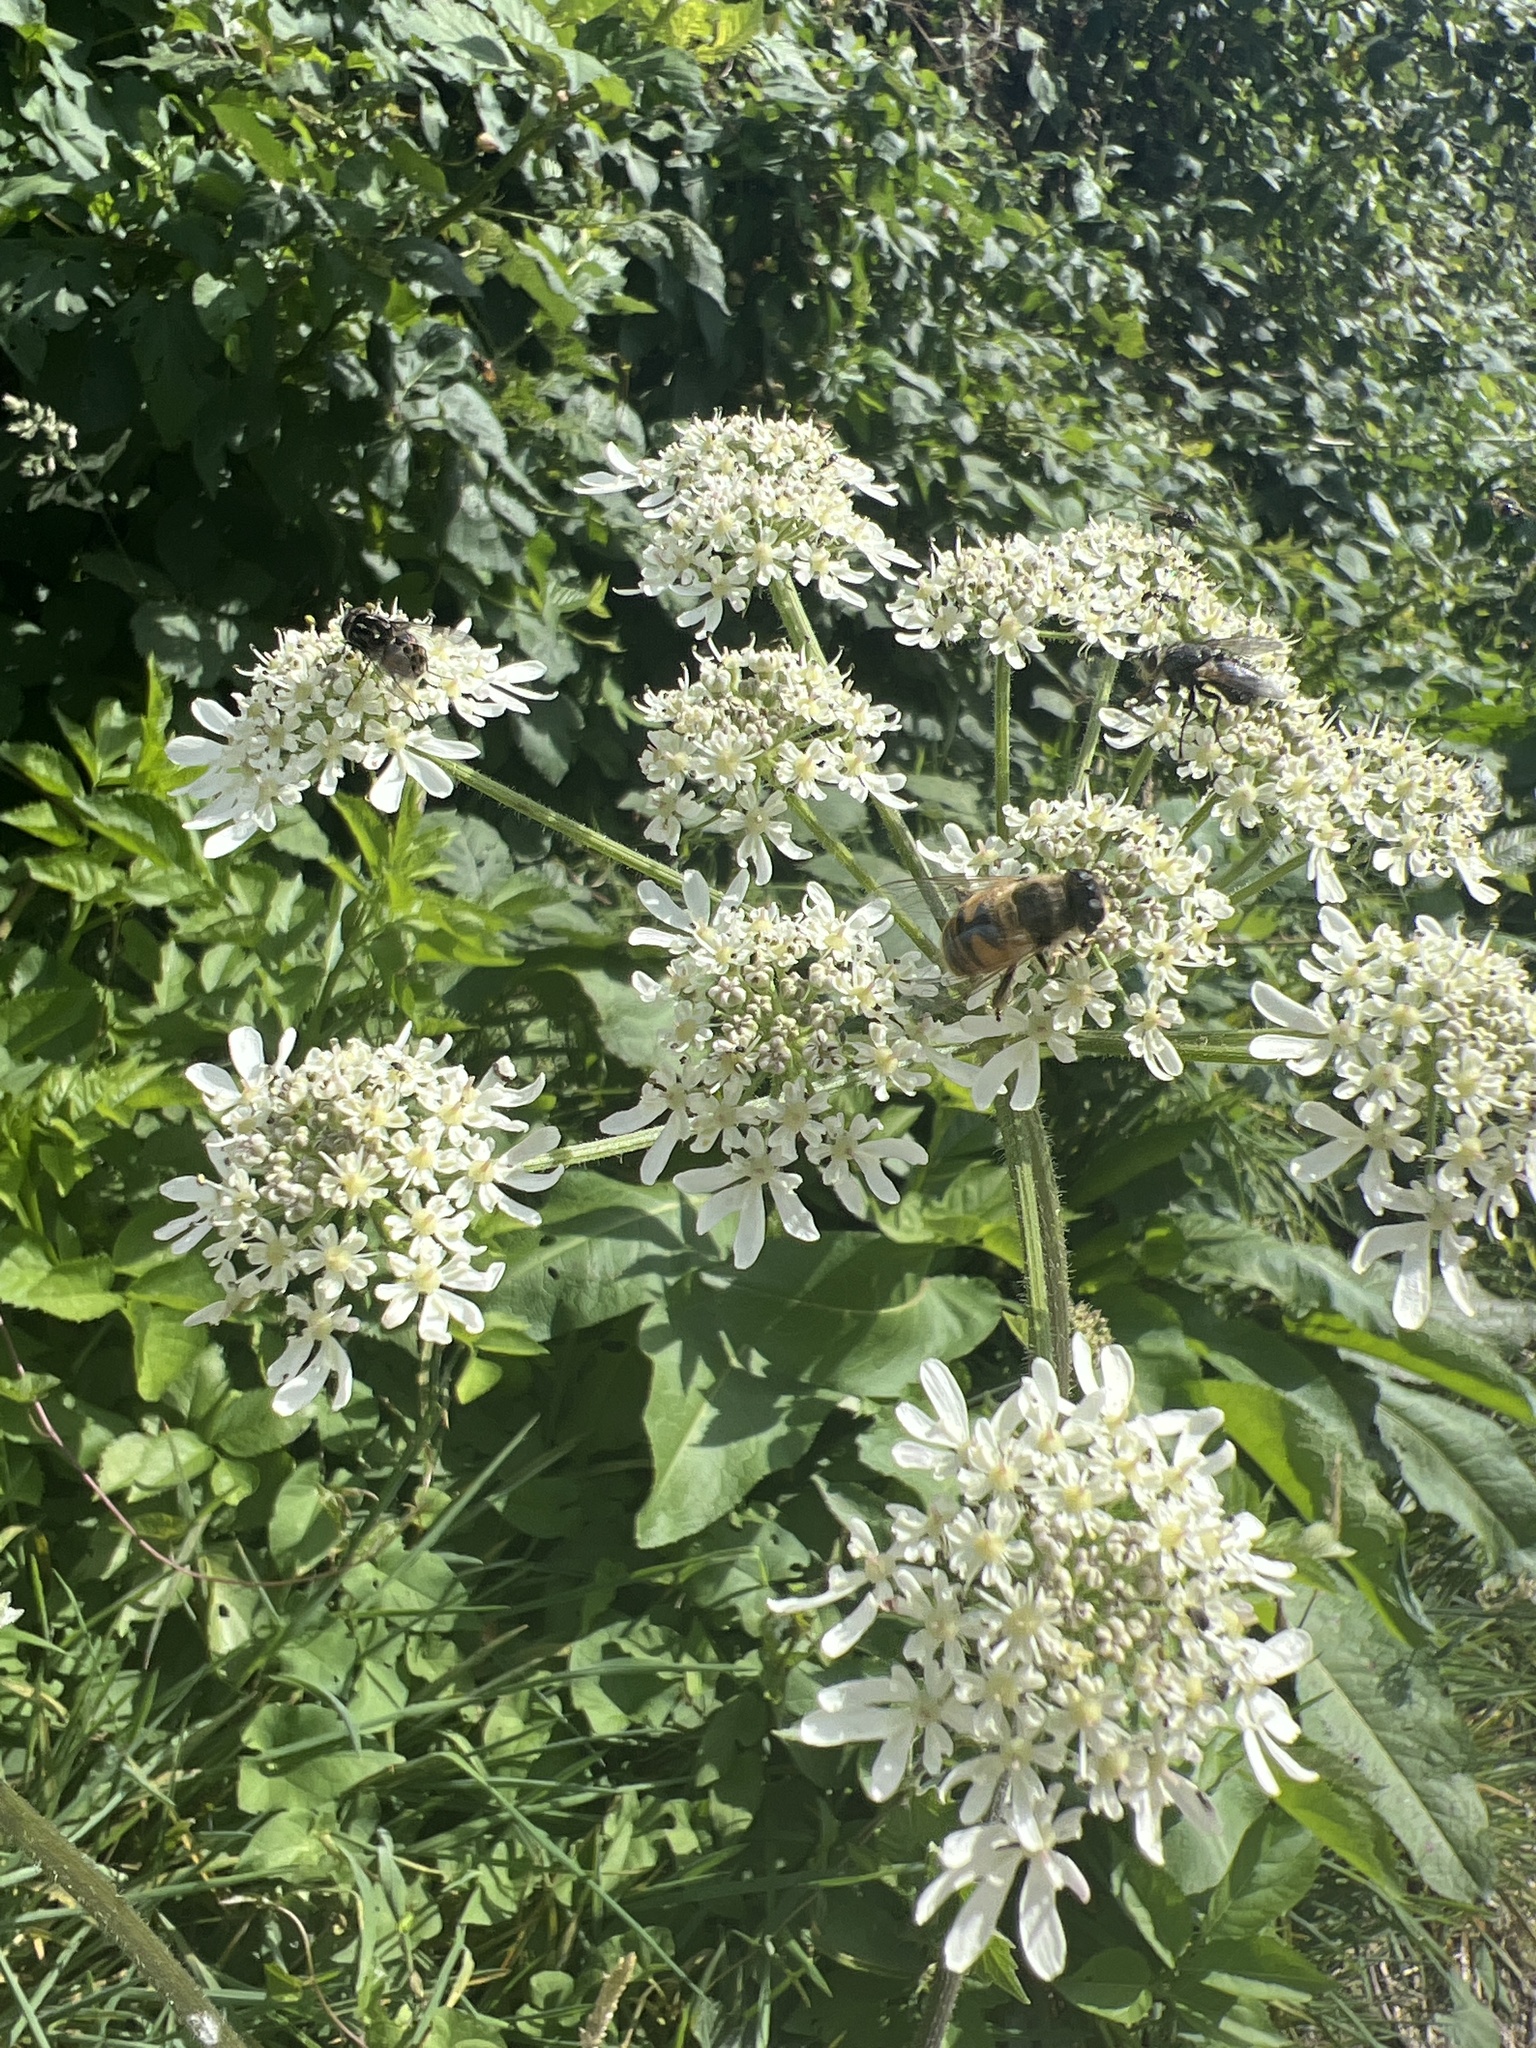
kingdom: Animalia
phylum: Arthropoda
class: Insecta
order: Diptera
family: Syrphidae
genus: Eristalis
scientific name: Eristalis tenax
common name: Drone fly
